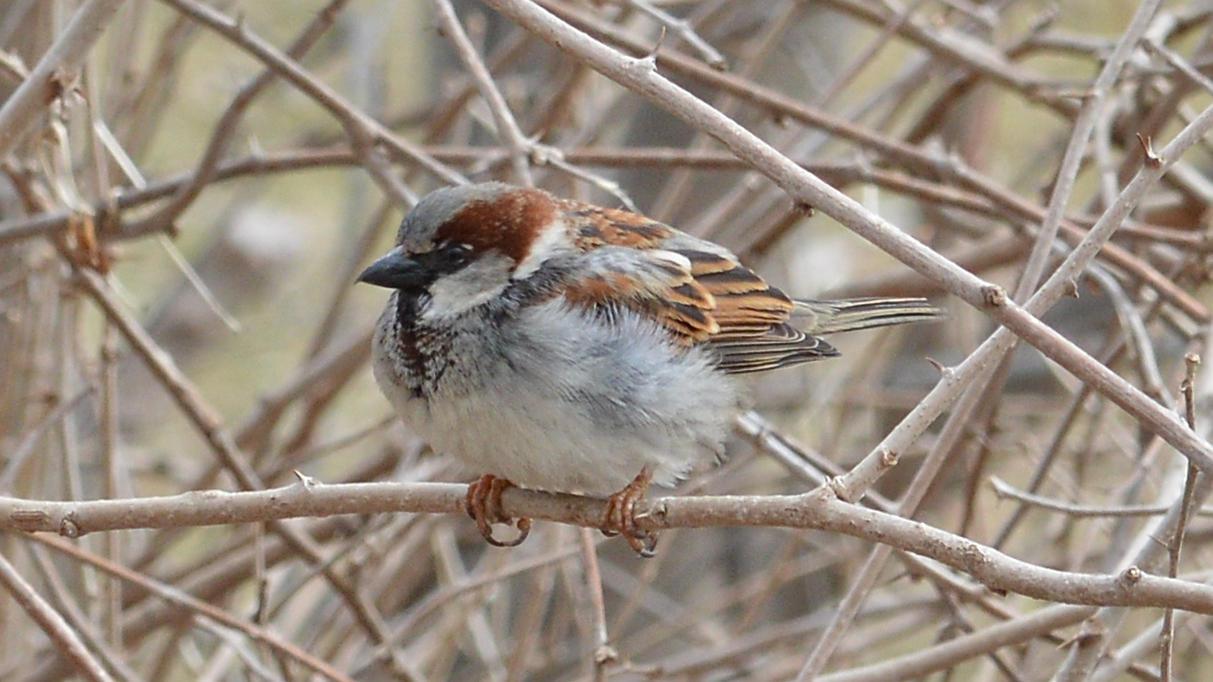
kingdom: Animalia
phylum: Chordata
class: Aves
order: Passeriformes
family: Passeridae
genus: Passer
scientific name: Passer domesticus
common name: House sparrow
